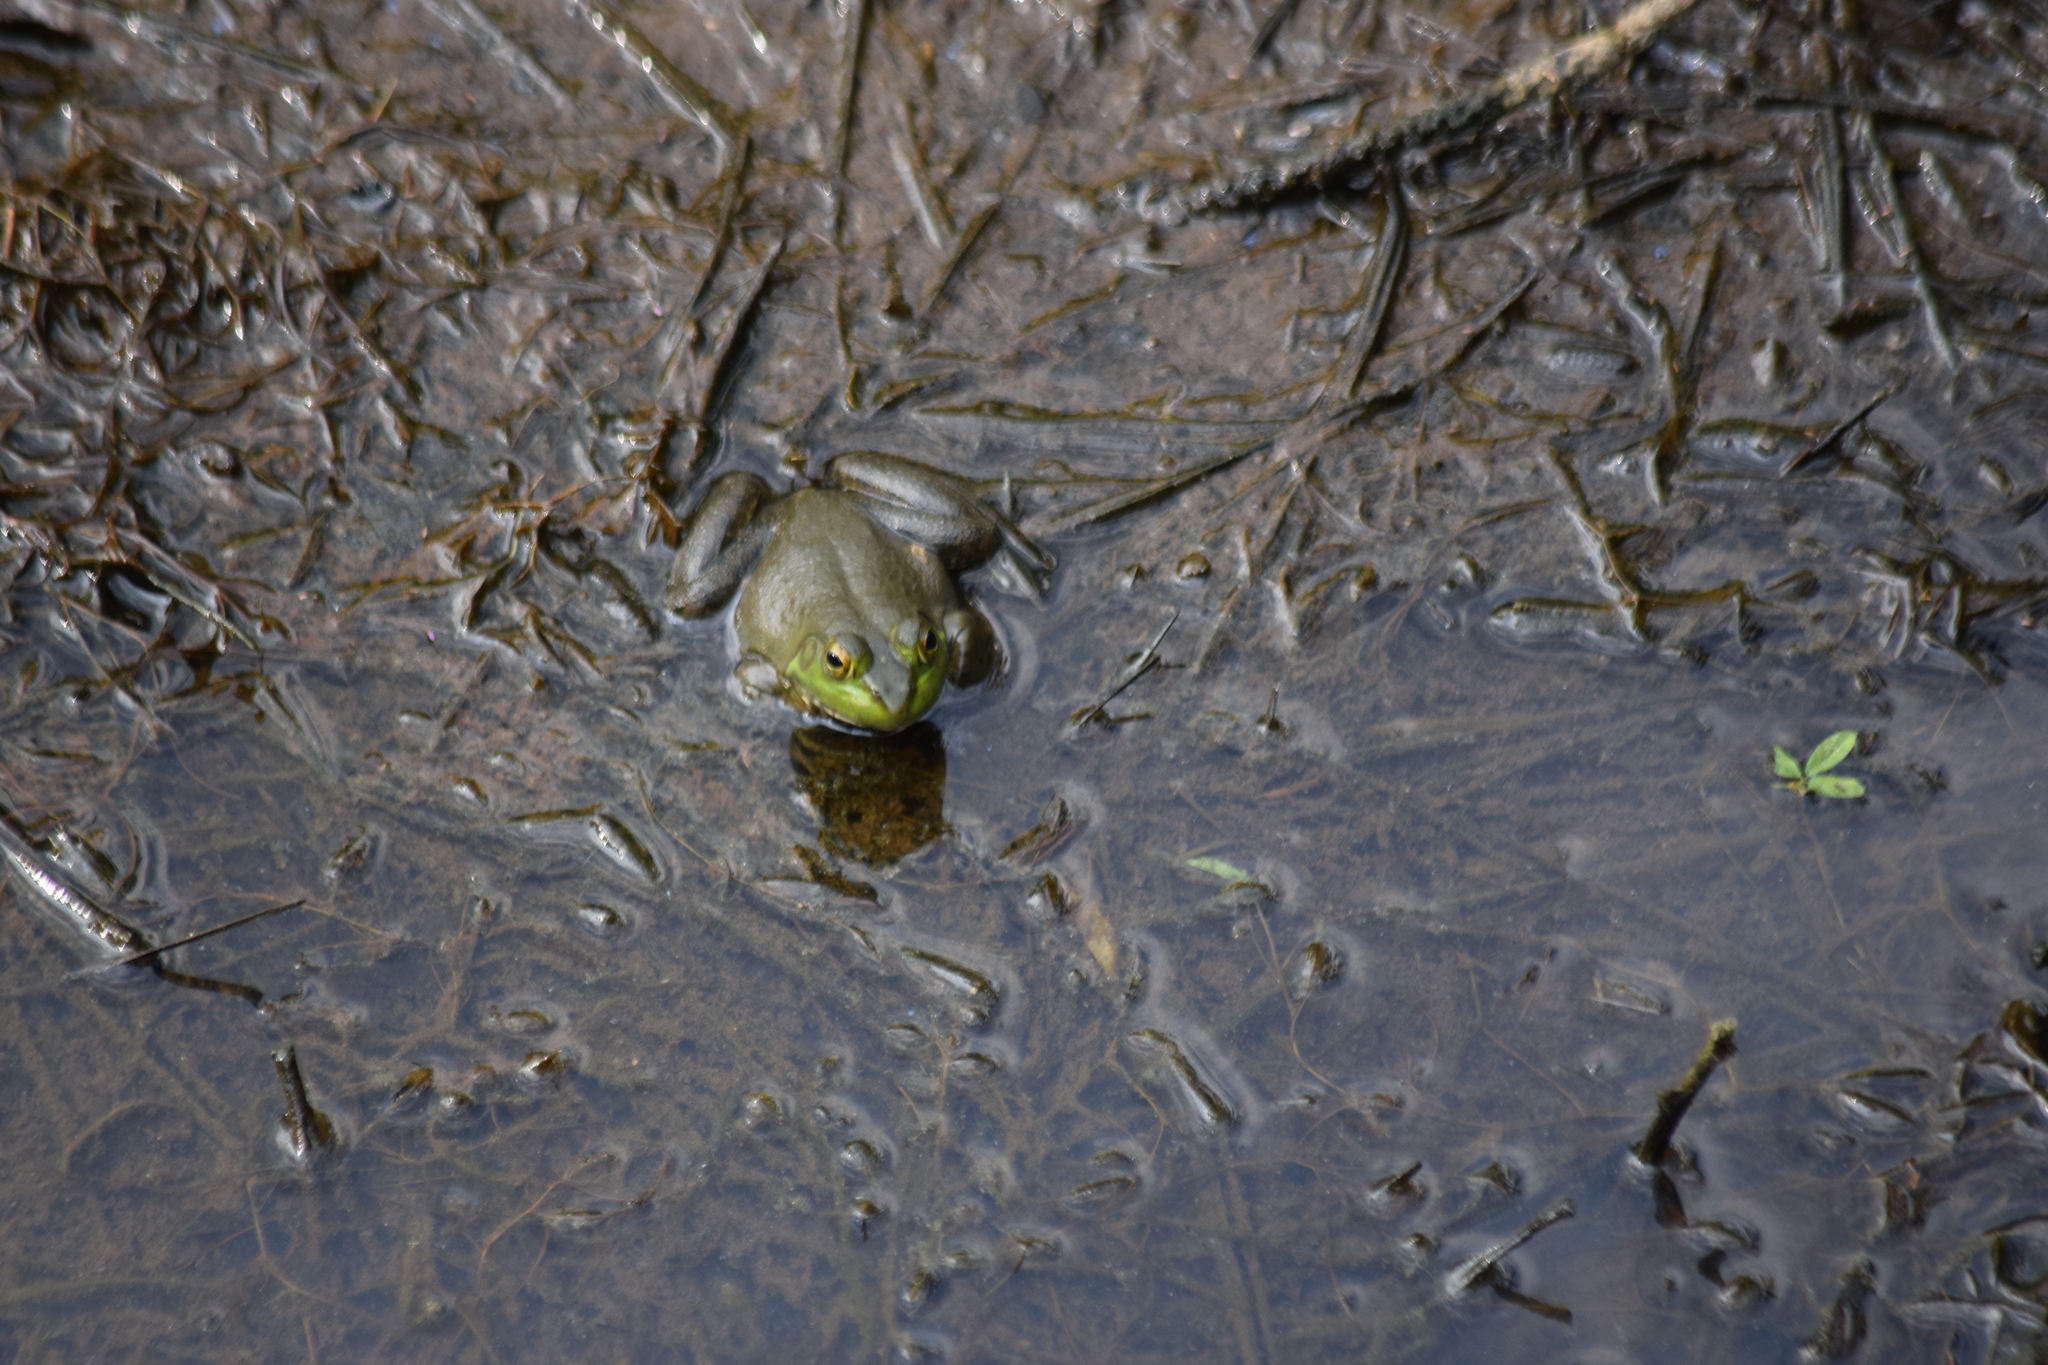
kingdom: Animalia
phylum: Chordata
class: Amphibia
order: Anura
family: Ranidae
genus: Lithobates
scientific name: Lithobates catesbeianus
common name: American bullfrog
